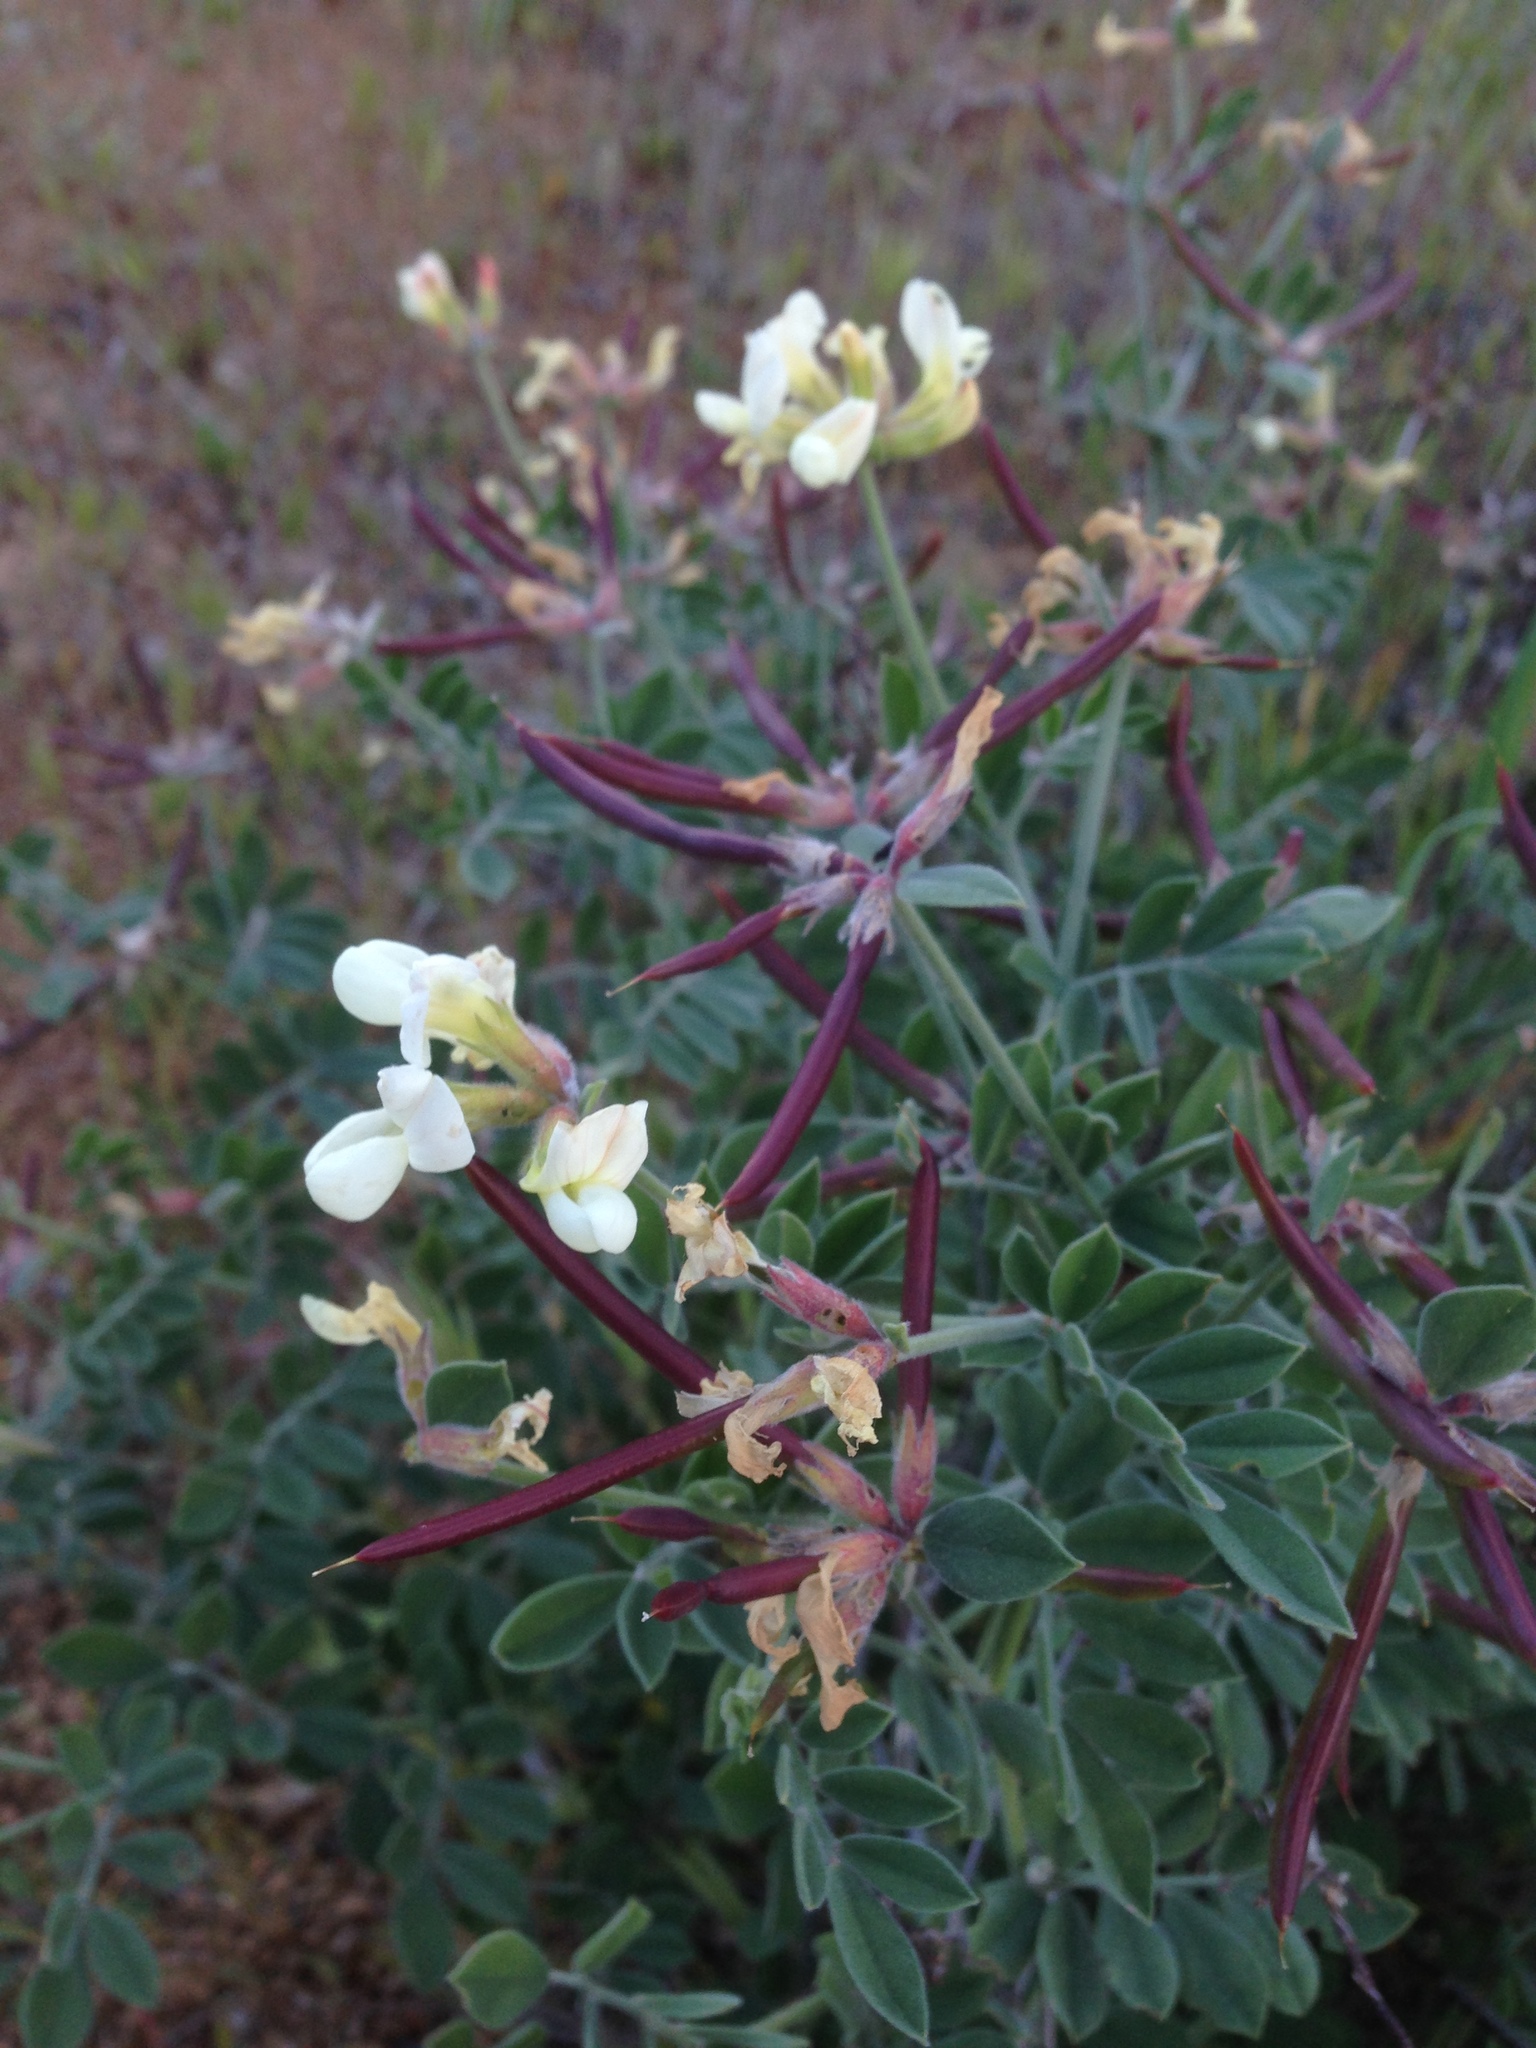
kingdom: Plantae
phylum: Tracheophyta
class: Magnoliopsida
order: Fabales
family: Fabaceae
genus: Acmispon
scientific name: Acmispon grandiflorus
